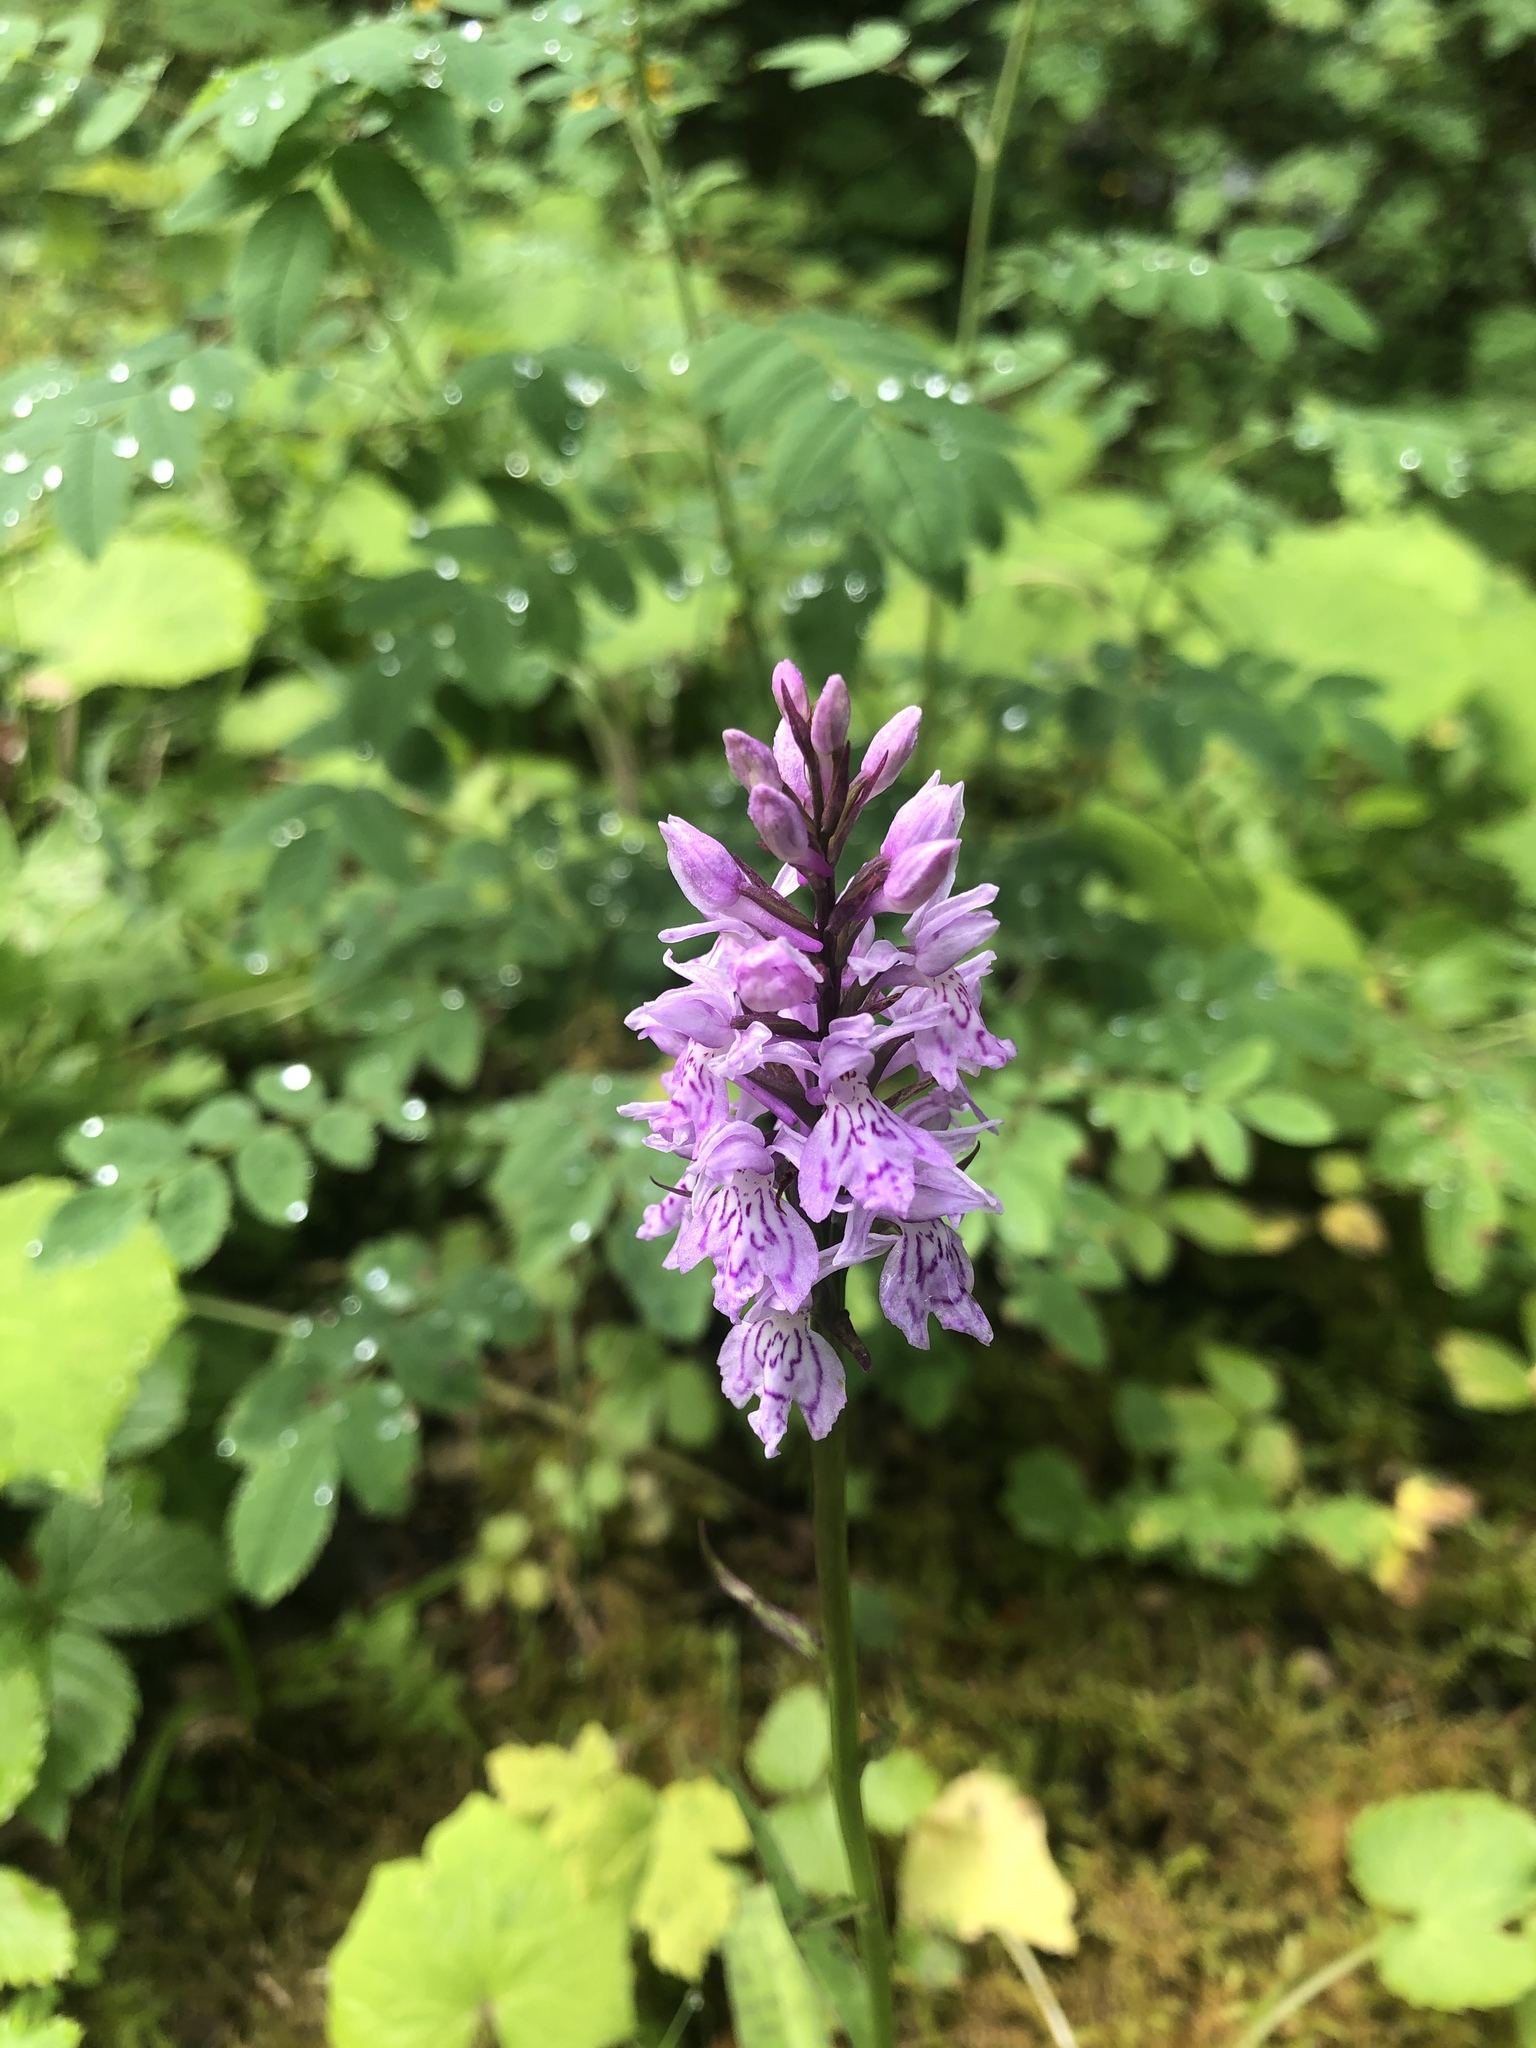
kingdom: Plantae
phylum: Tracheophyta
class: Liliopsida
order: Asparagales
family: Orchidaceae
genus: Dactylorhiza
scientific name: Dactylorhiza maculata
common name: Heath spotted-orchid
